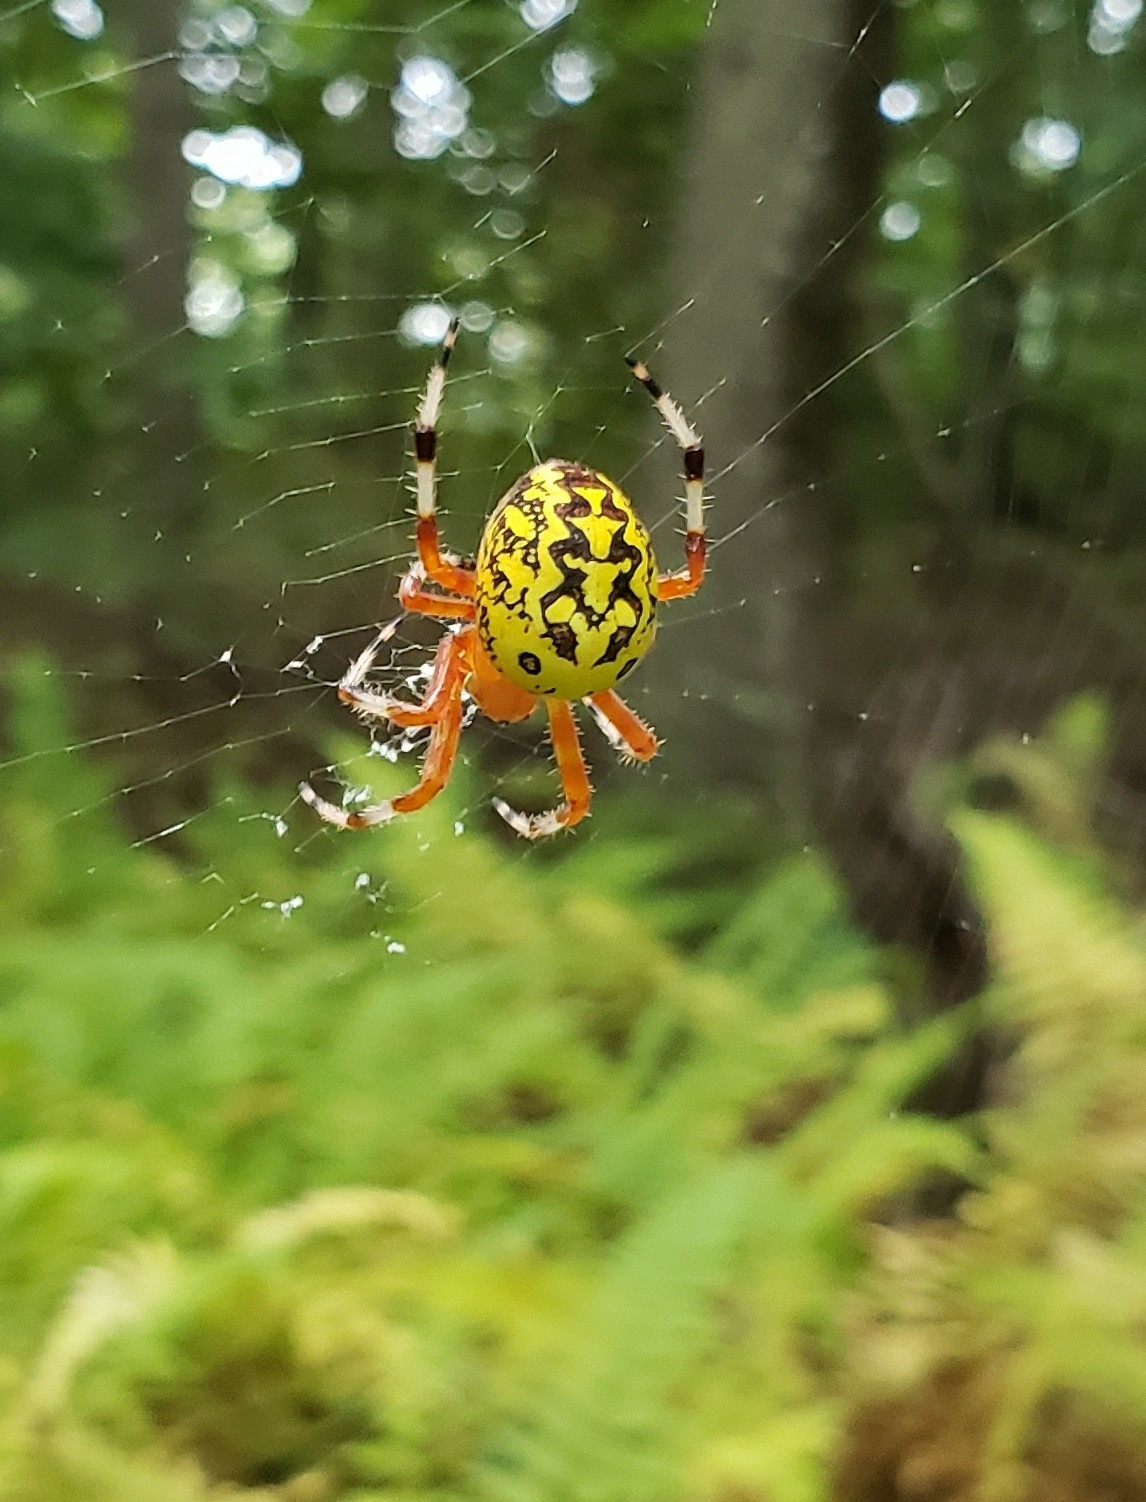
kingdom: Animalia
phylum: Arthropoda
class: Arachnida
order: Araneae
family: Araneidae
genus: Araneus
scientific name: Araneus marmoreus
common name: Marbled orbweaver
